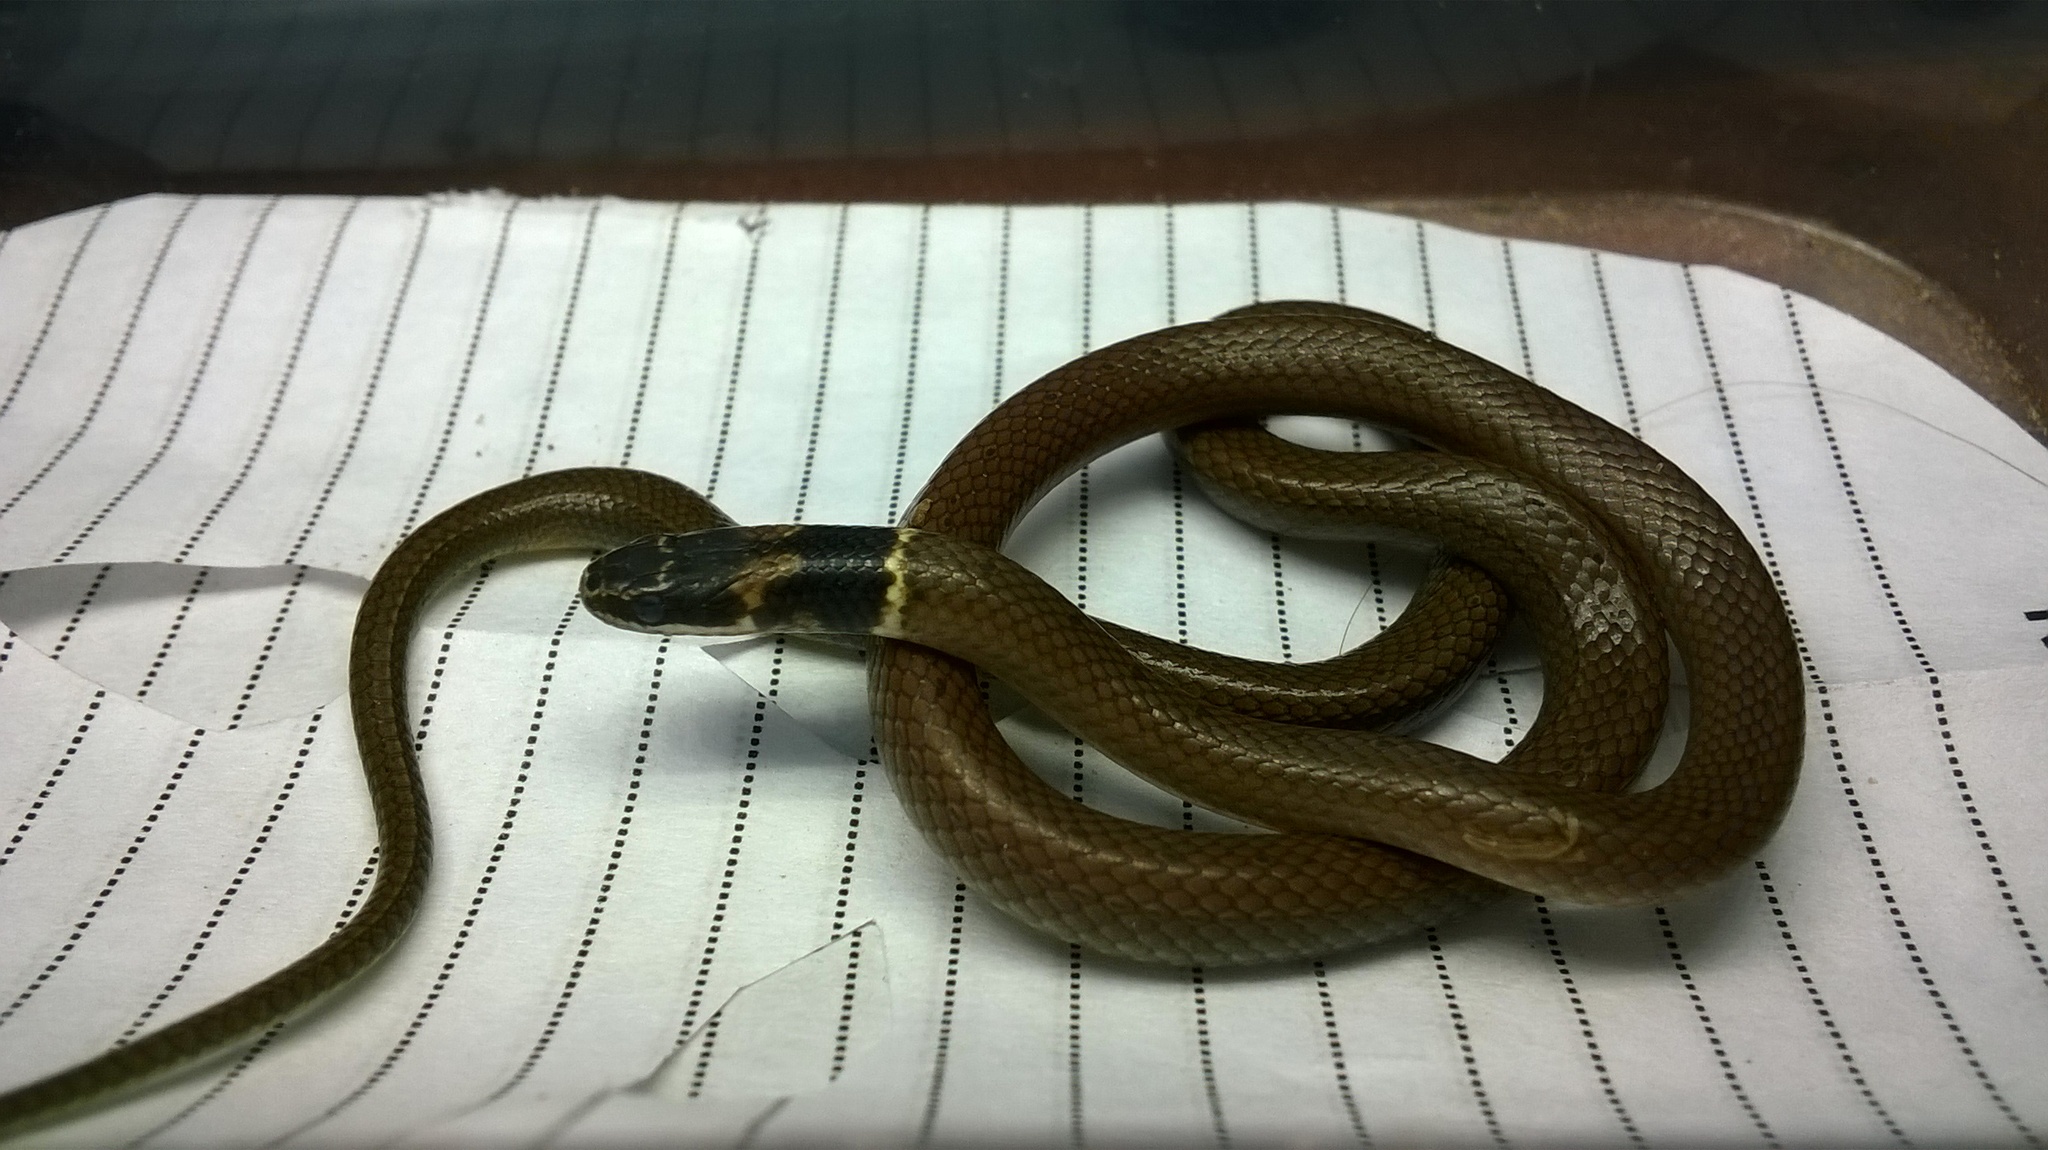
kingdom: Animalia
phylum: Chordata
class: Squamata
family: Colubridae
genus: Sibynophis
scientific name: Sibynophis subpunctatus
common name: Black-headed snake
